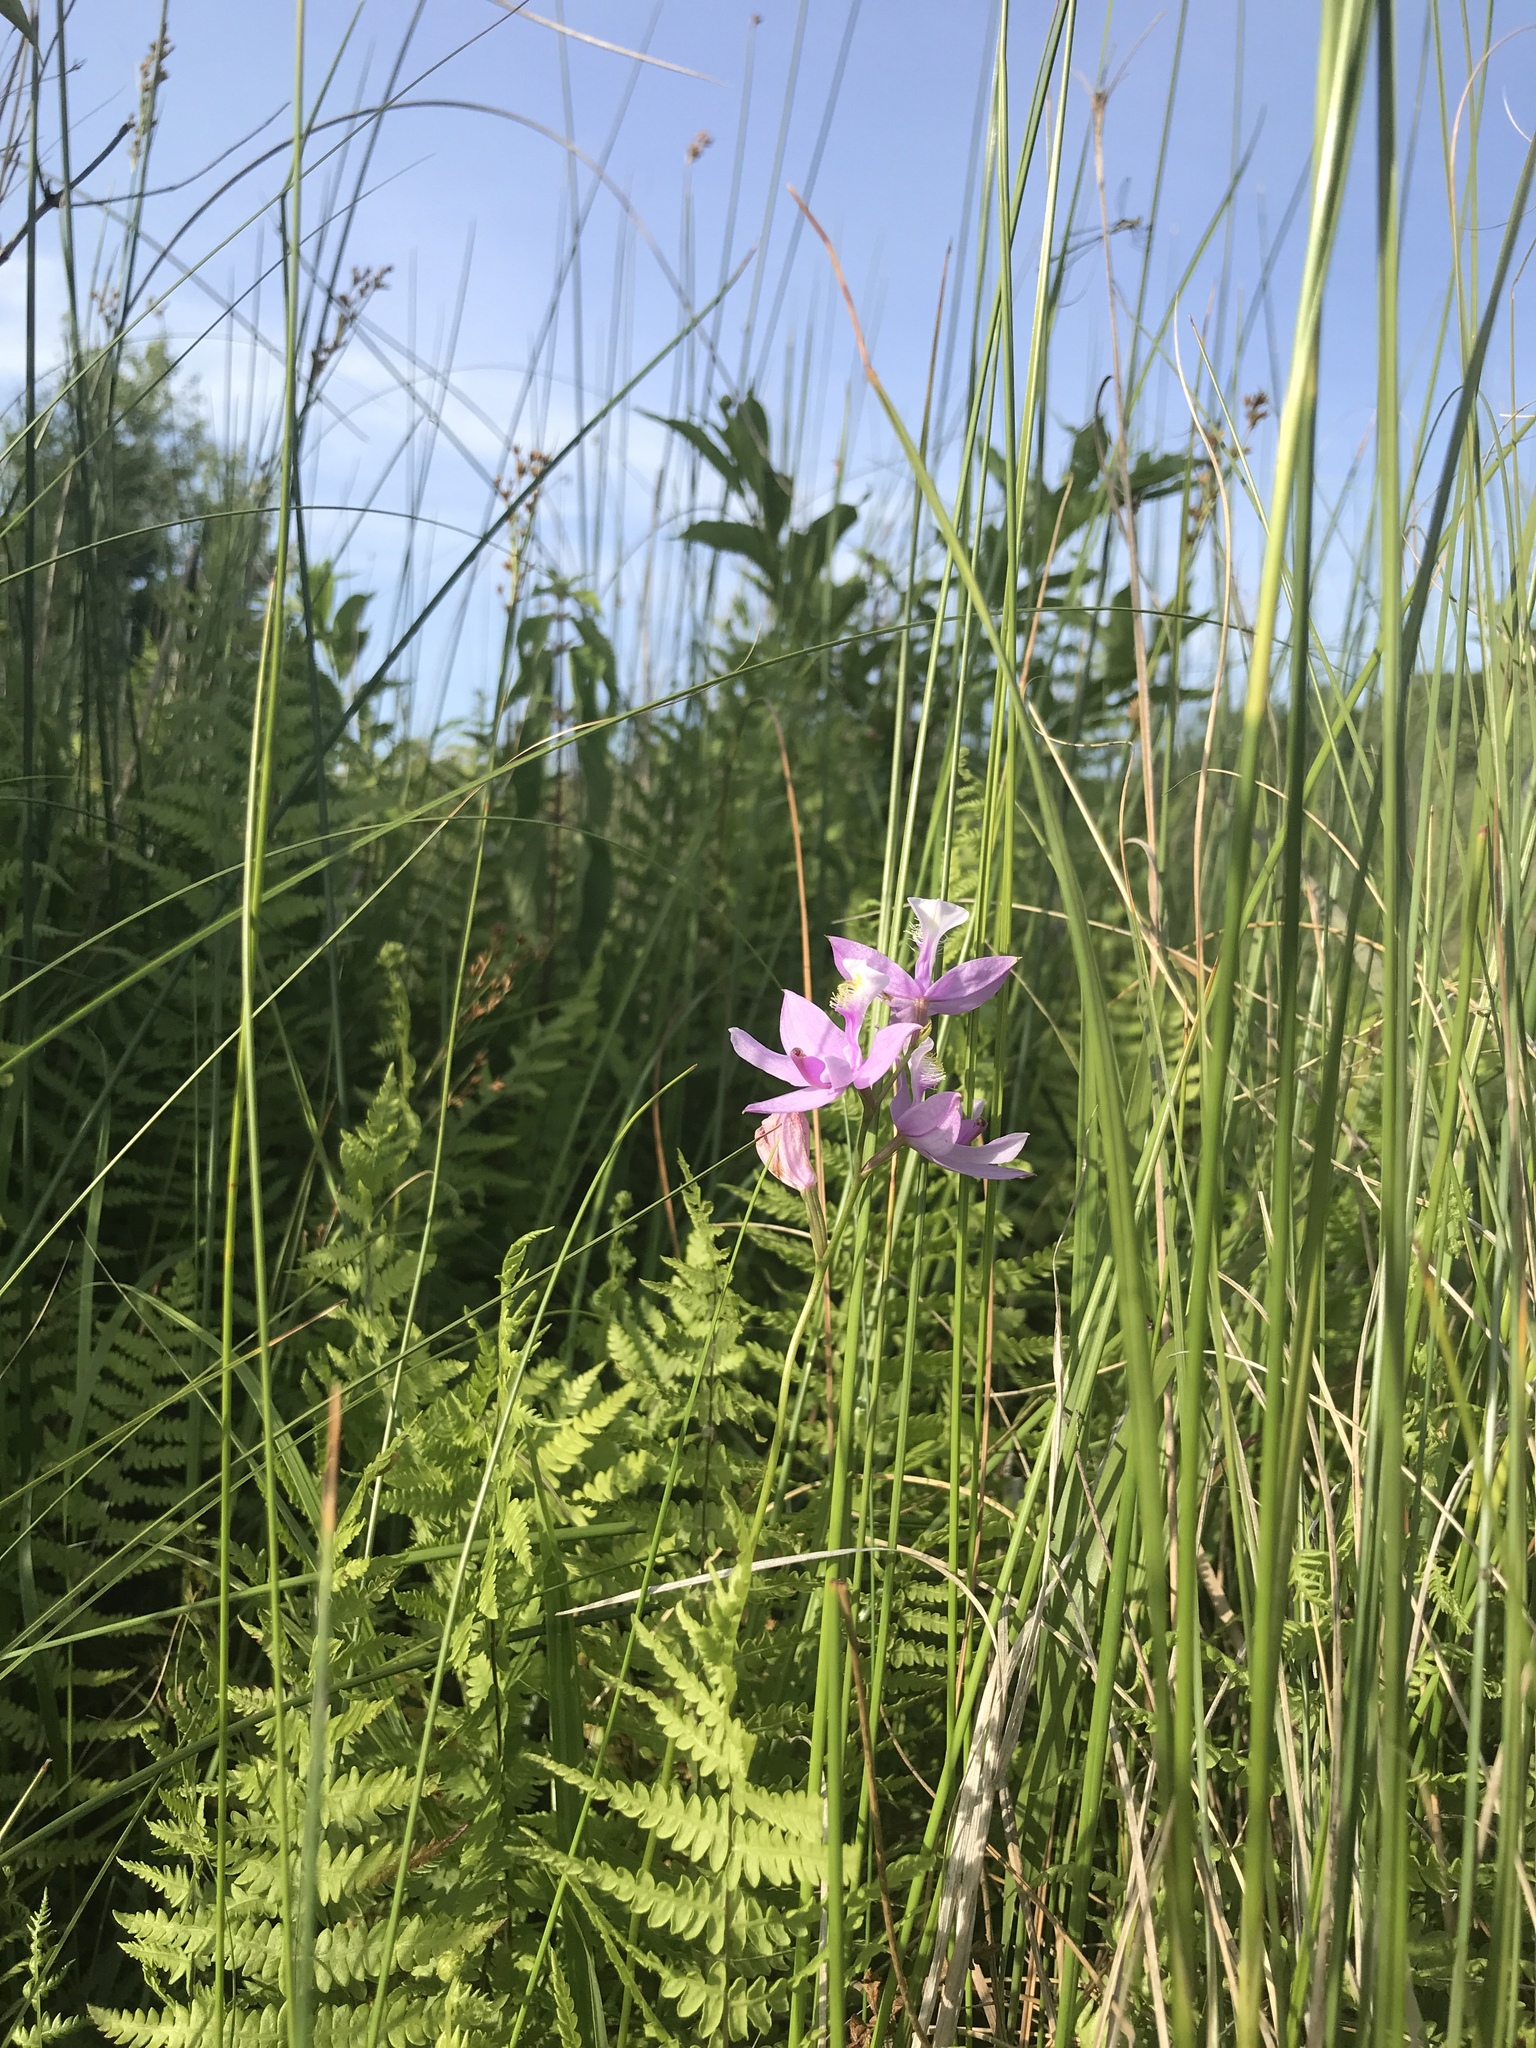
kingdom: Plantae
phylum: Tracheophyta
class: Liliopsida
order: Asparagales
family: Orchidaceae
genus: Calopogon
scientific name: Calopogon tuberosus
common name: Grass-pink
